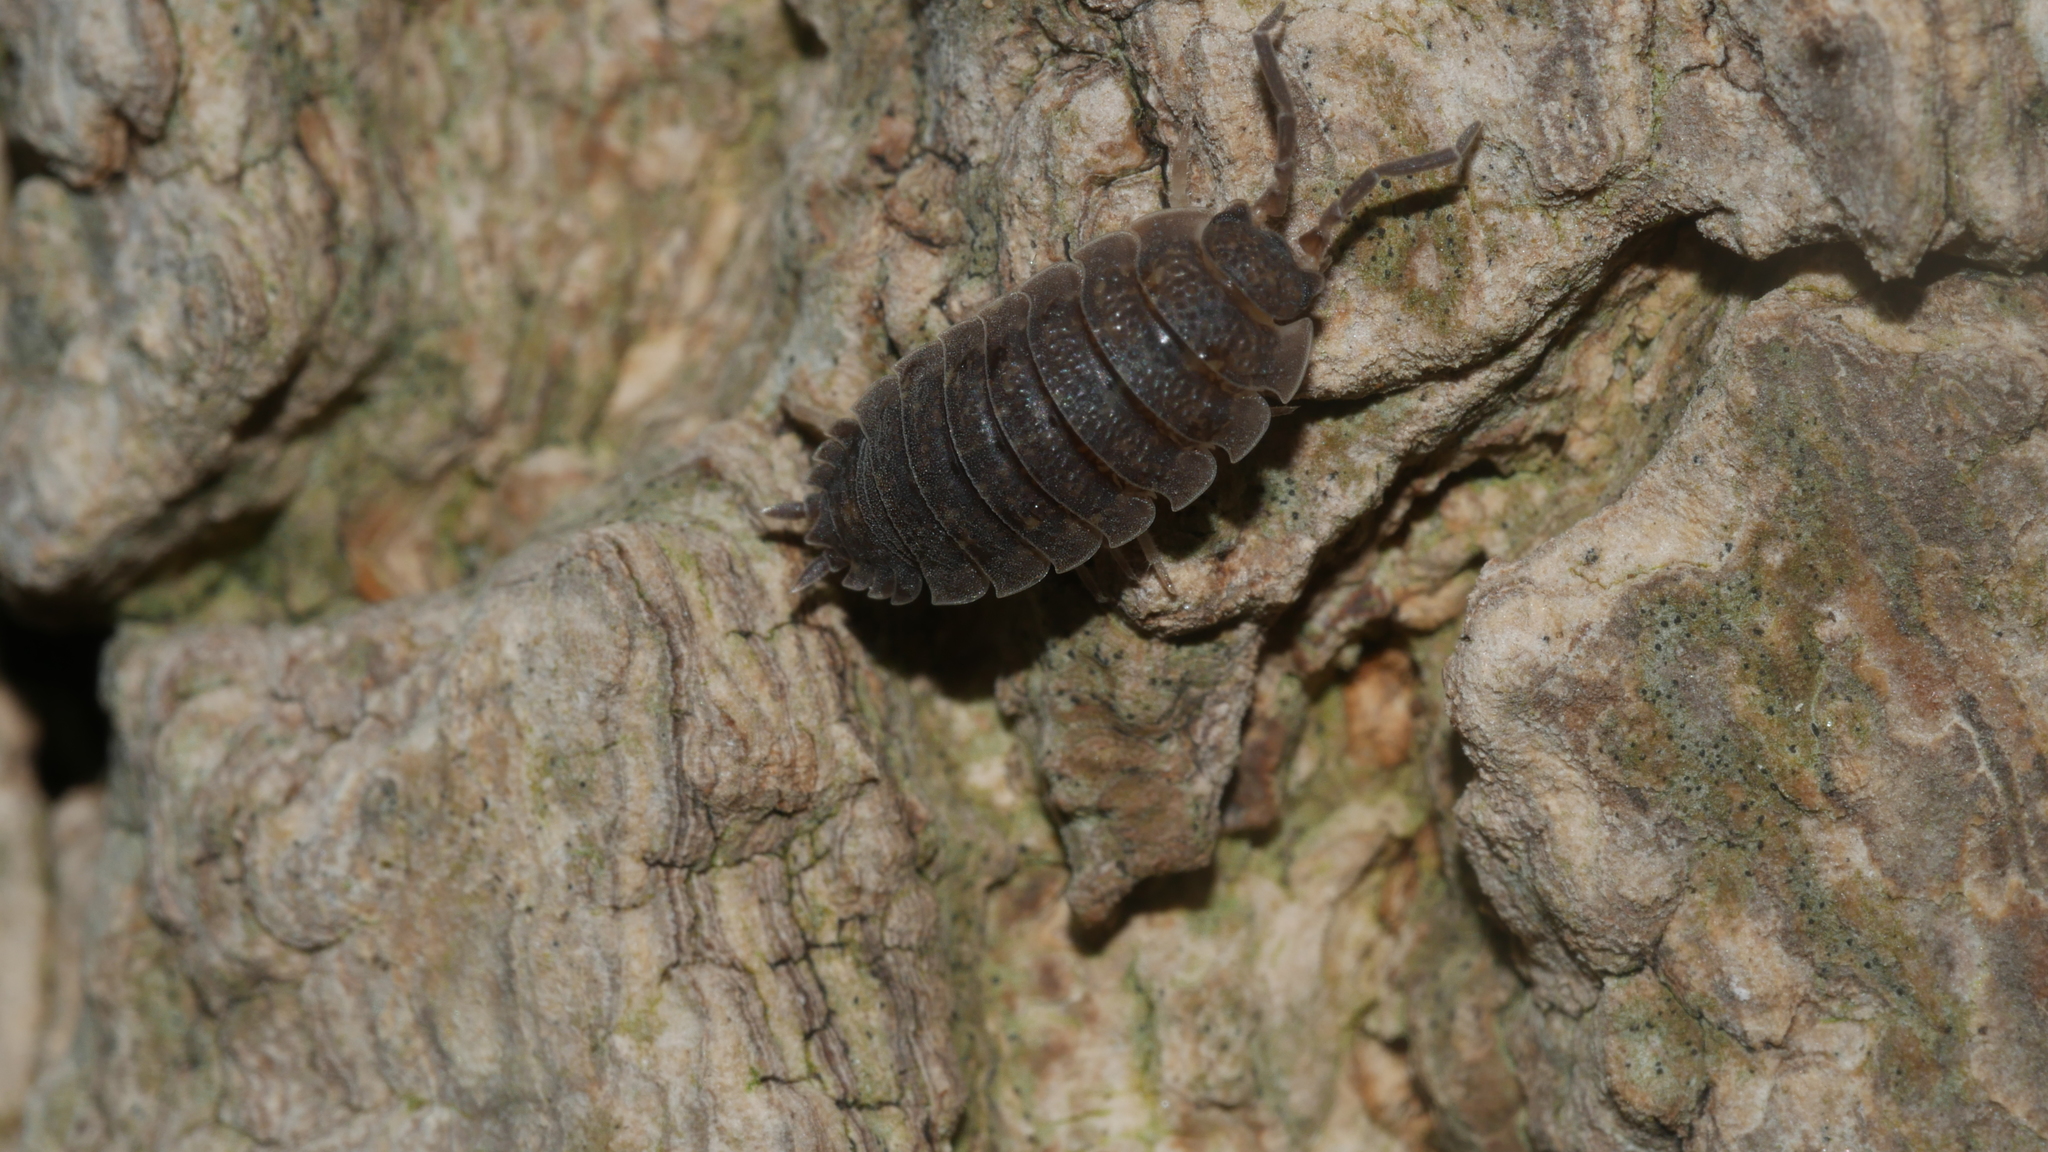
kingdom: Animalia
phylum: Arthropoda
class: Malacostraca
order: Isopoda
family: Porcellionidae
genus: Porcellio
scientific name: Porcellio scaber
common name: Common rough woodlouse
